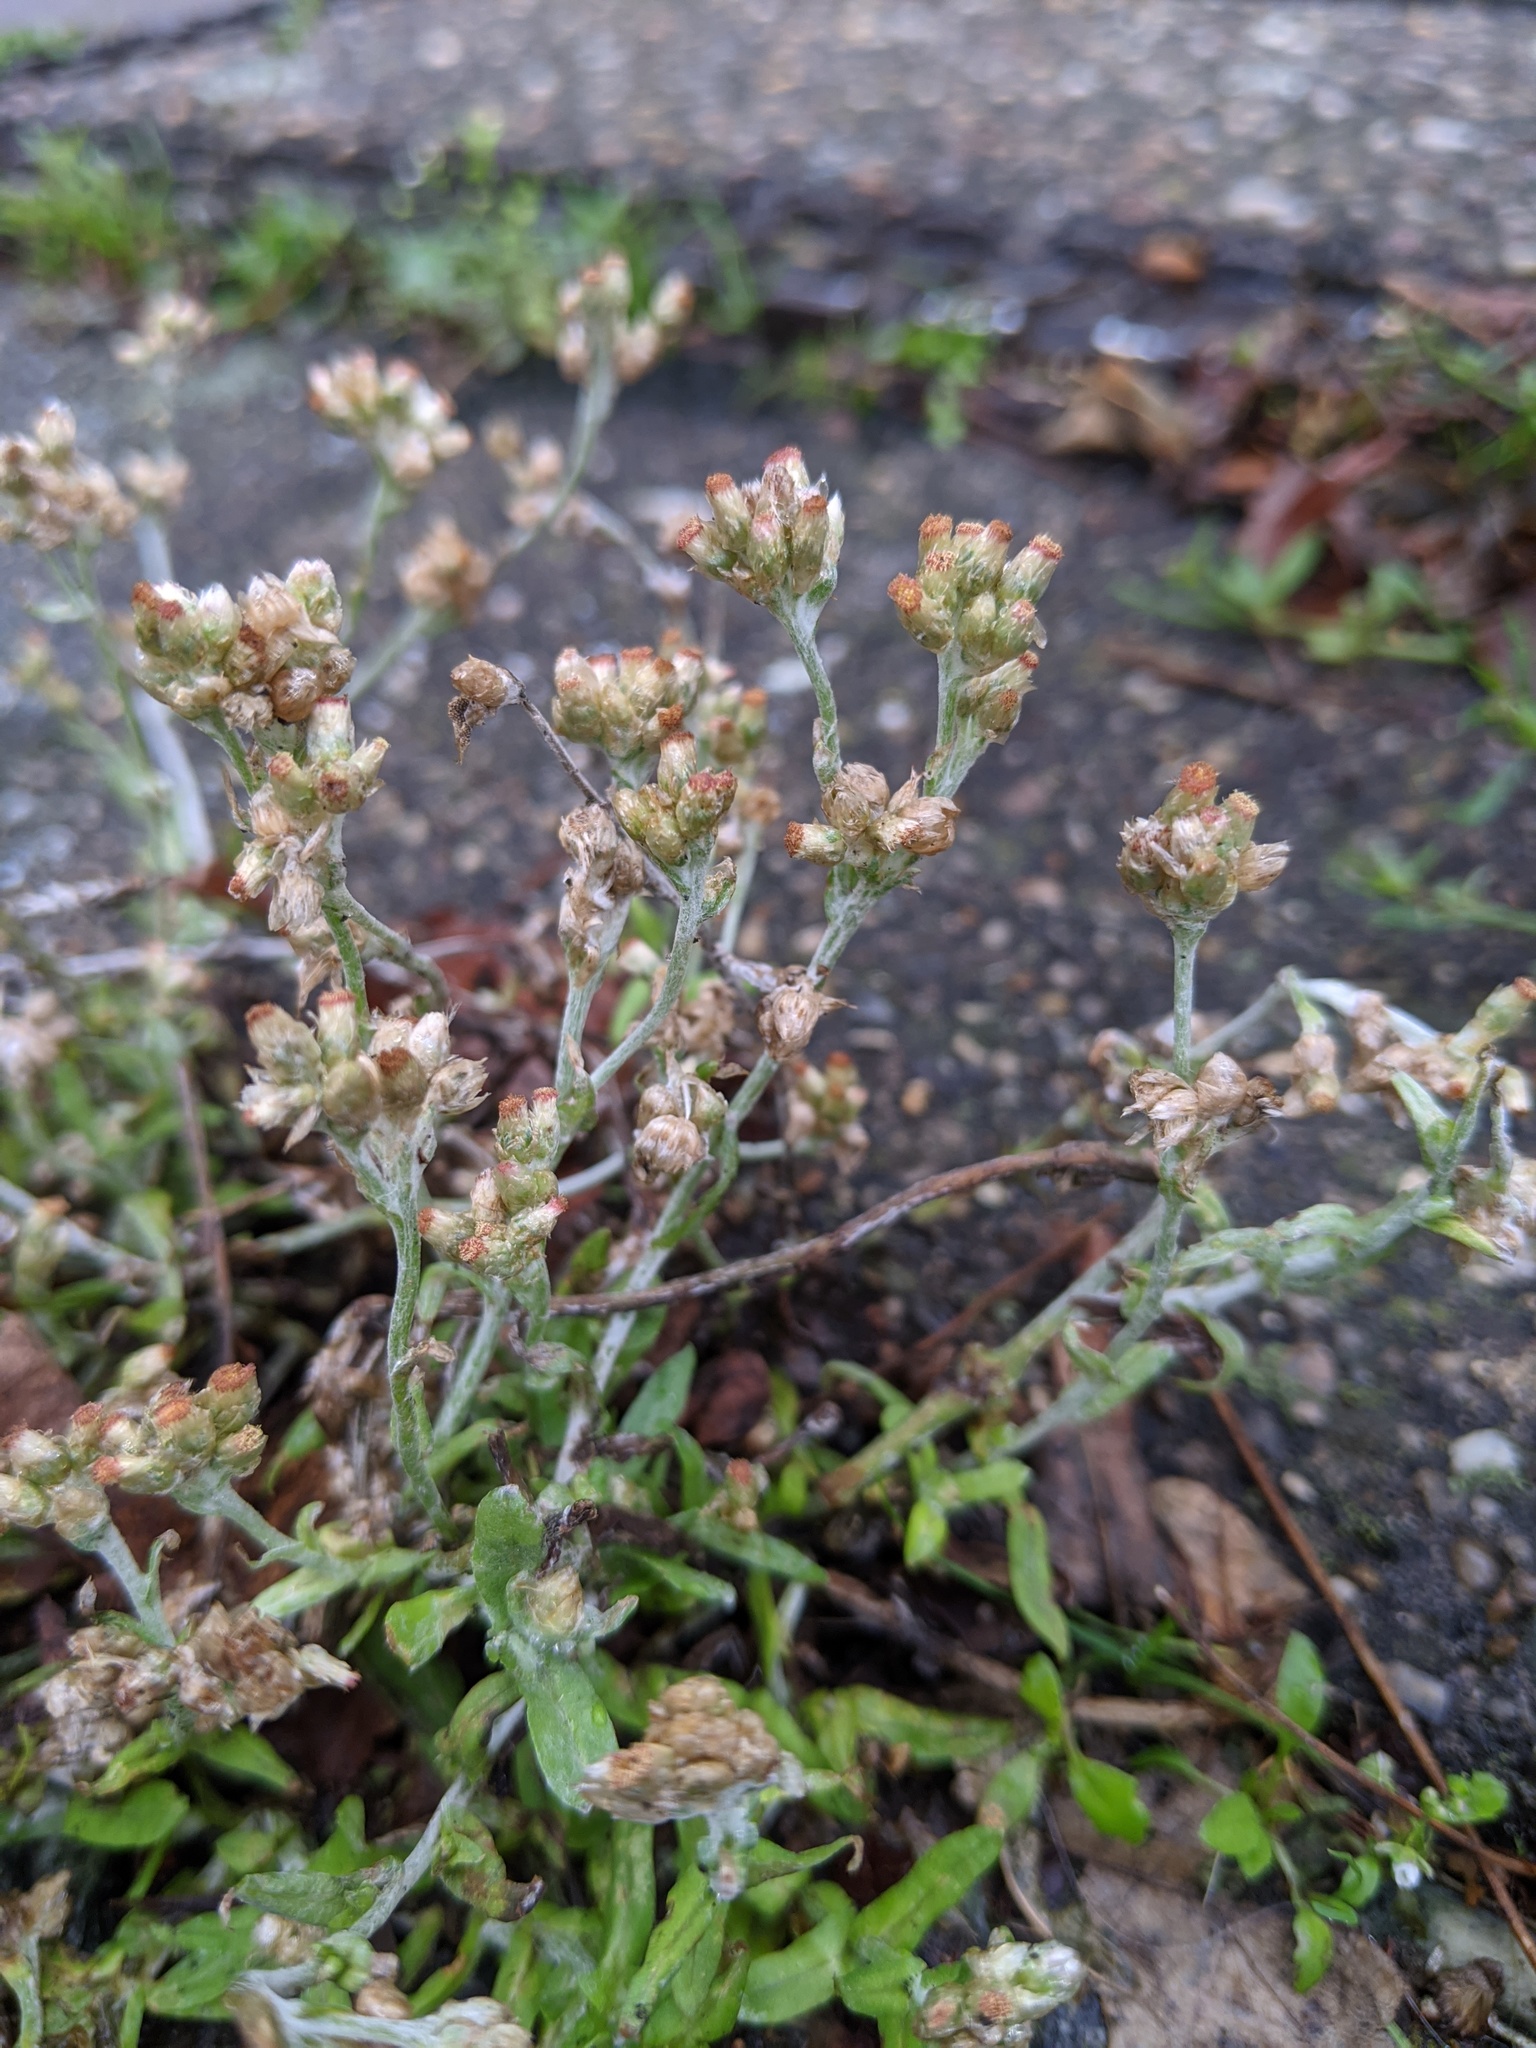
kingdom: Plantae
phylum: Tracheophyta
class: Magnoliopsida
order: Asterales
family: Asteraceae
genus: Helichrysum
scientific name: Helichrysum luteoalbum
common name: Daisy
